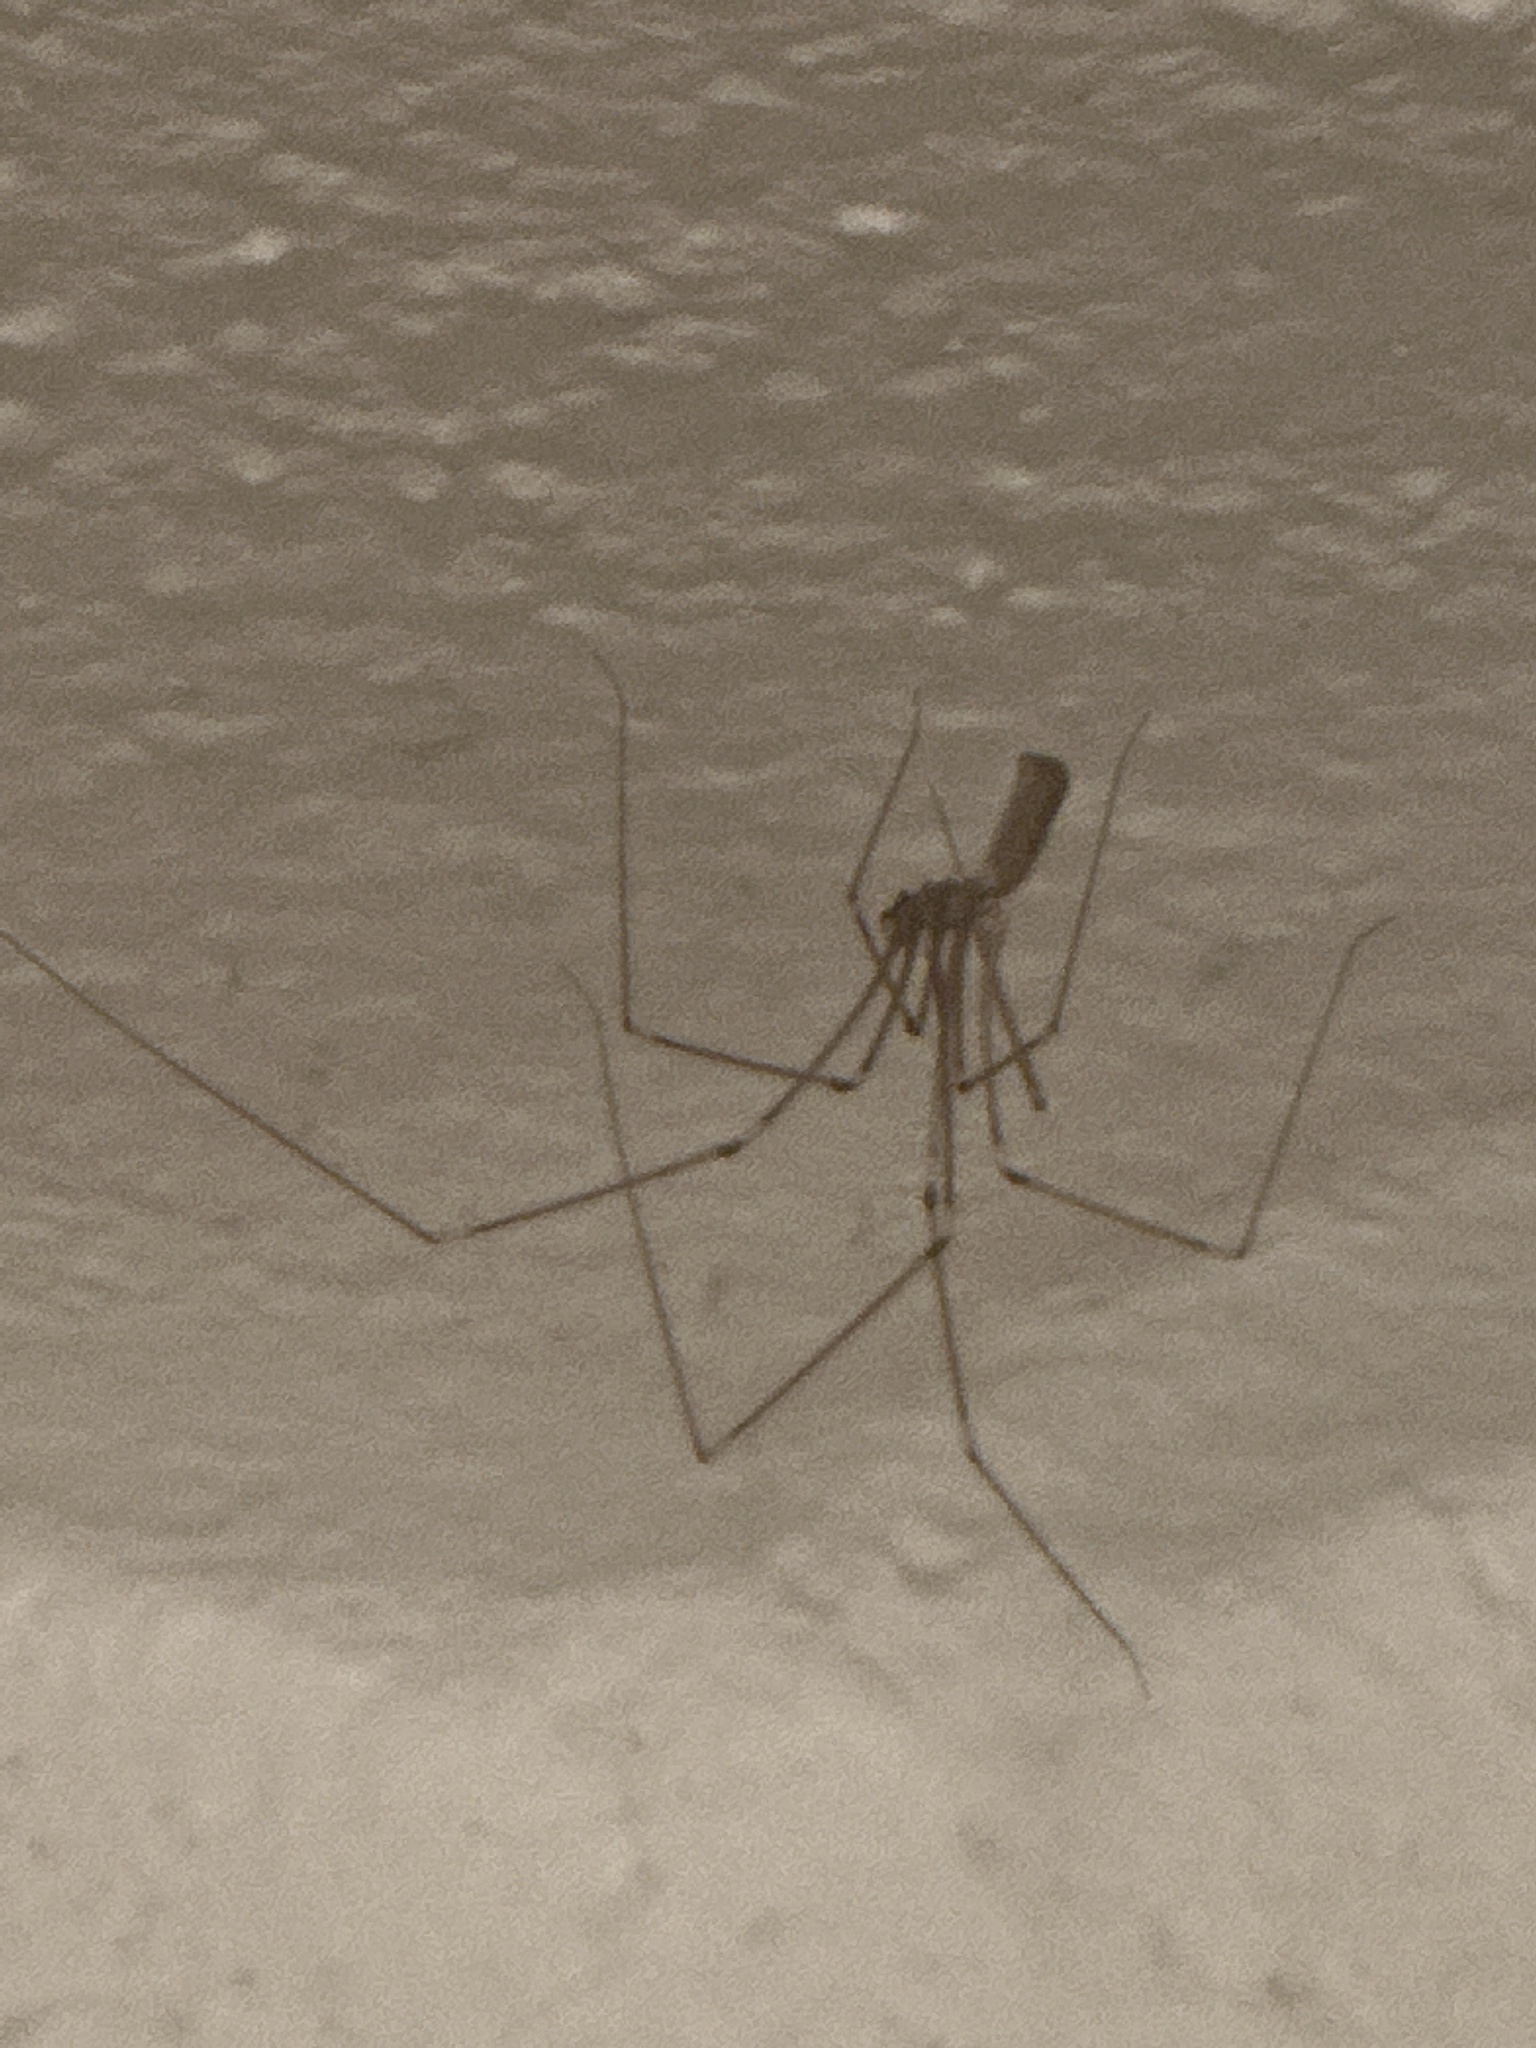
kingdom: Animalia
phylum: Arthropoda
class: Arachnida
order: Araneae
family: Pholcidae
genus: Pholcus
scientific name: Pholcus phalangioides
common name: Longbodied cellar spider
